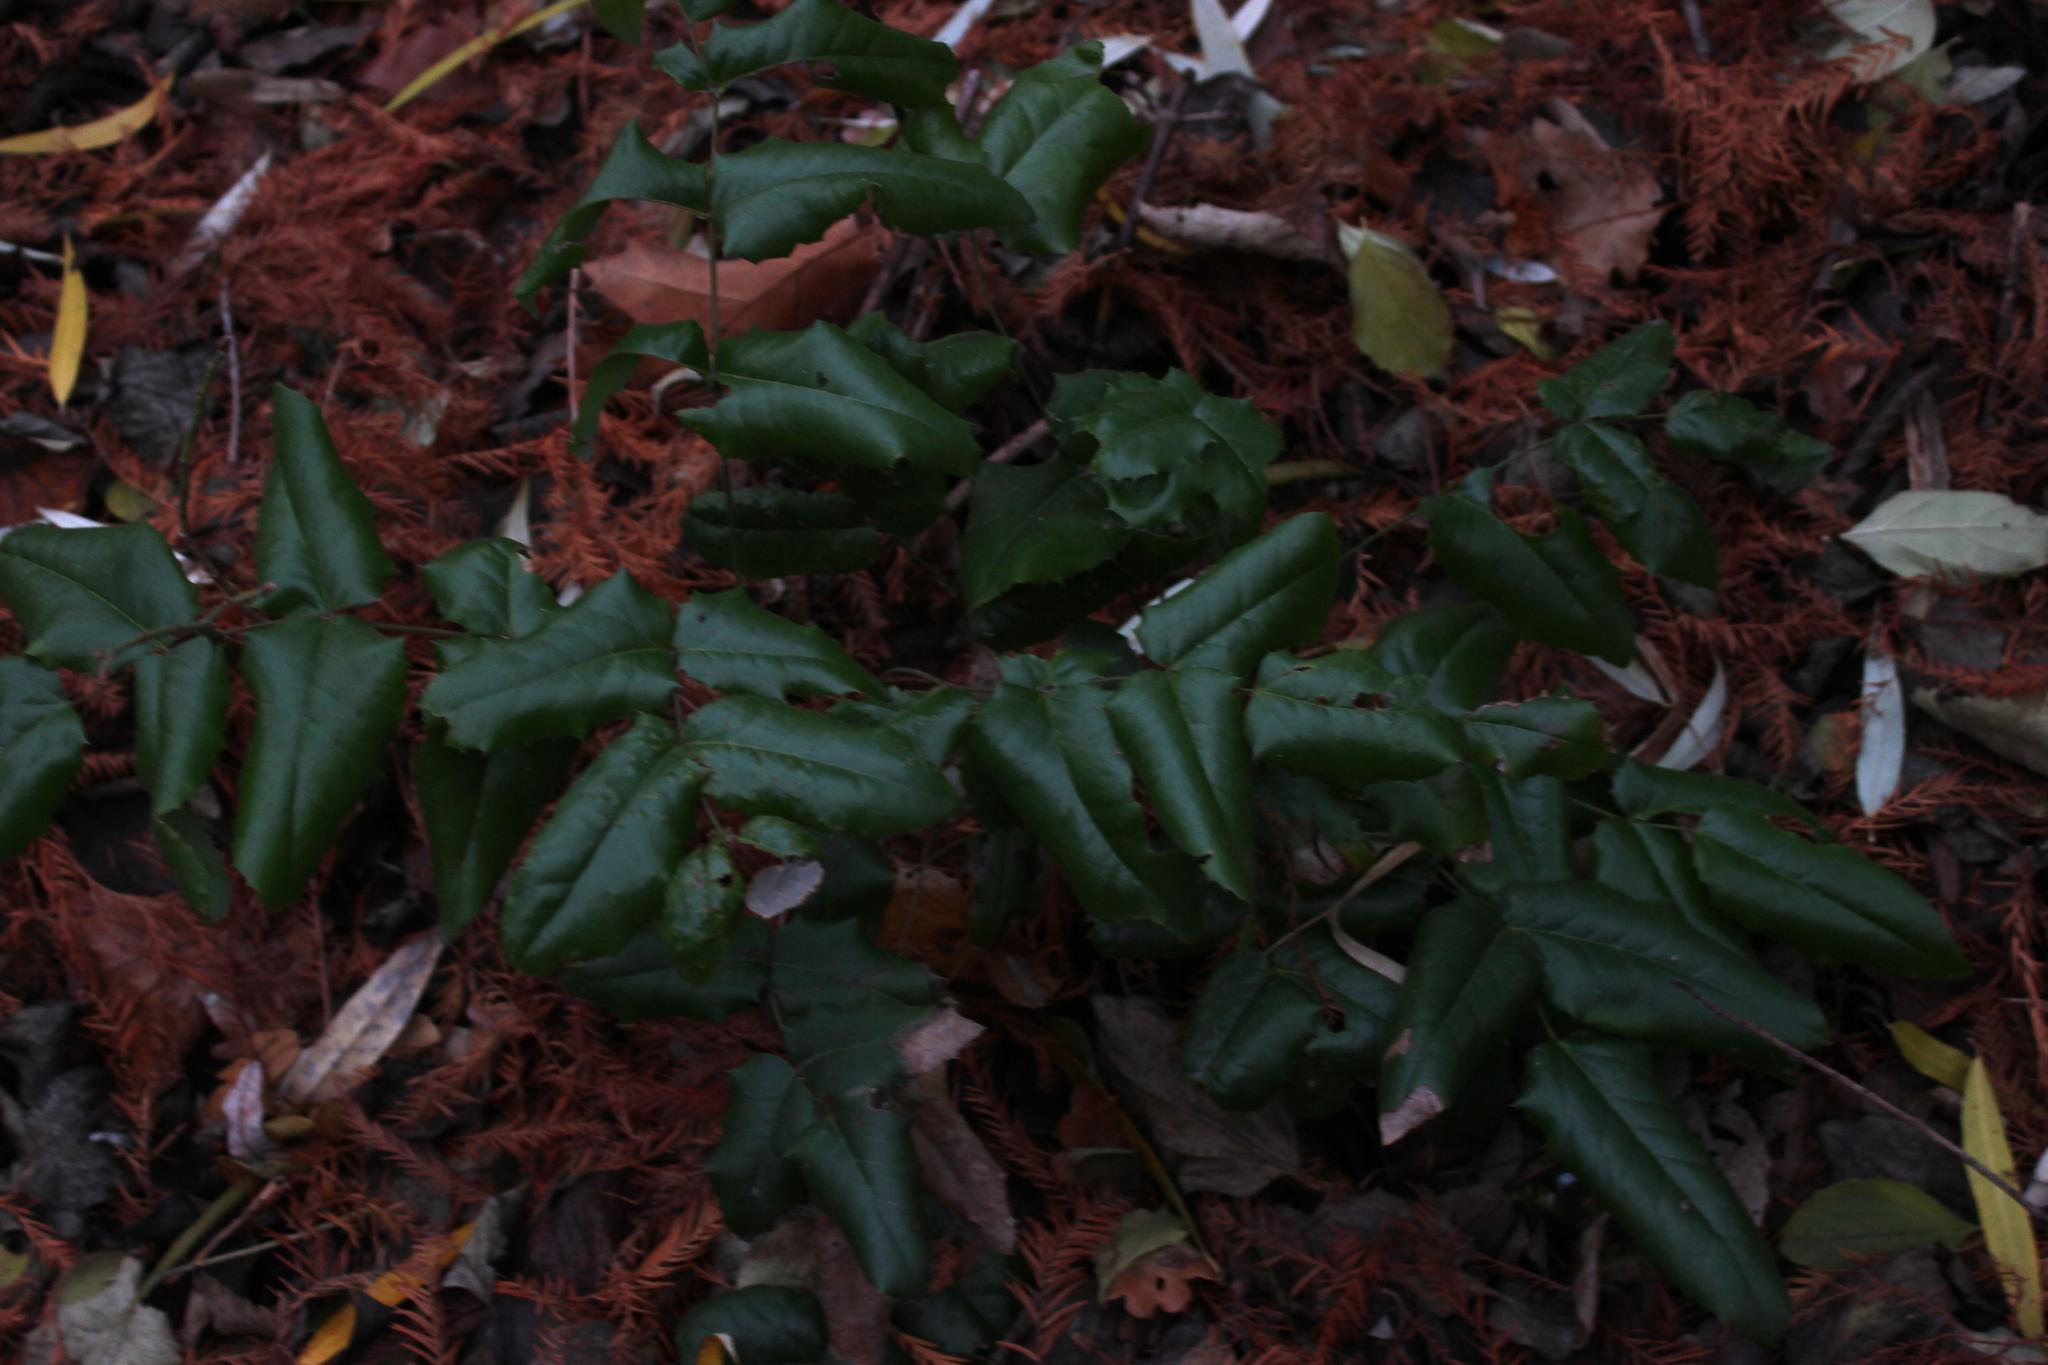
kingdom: Plantae
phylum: Tracheophyta
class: Magnoliopsida
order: Ranunculales
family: Berberidaceae
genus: Mahonia
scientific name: Mahonia aquifolium
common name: Oregon-grape
